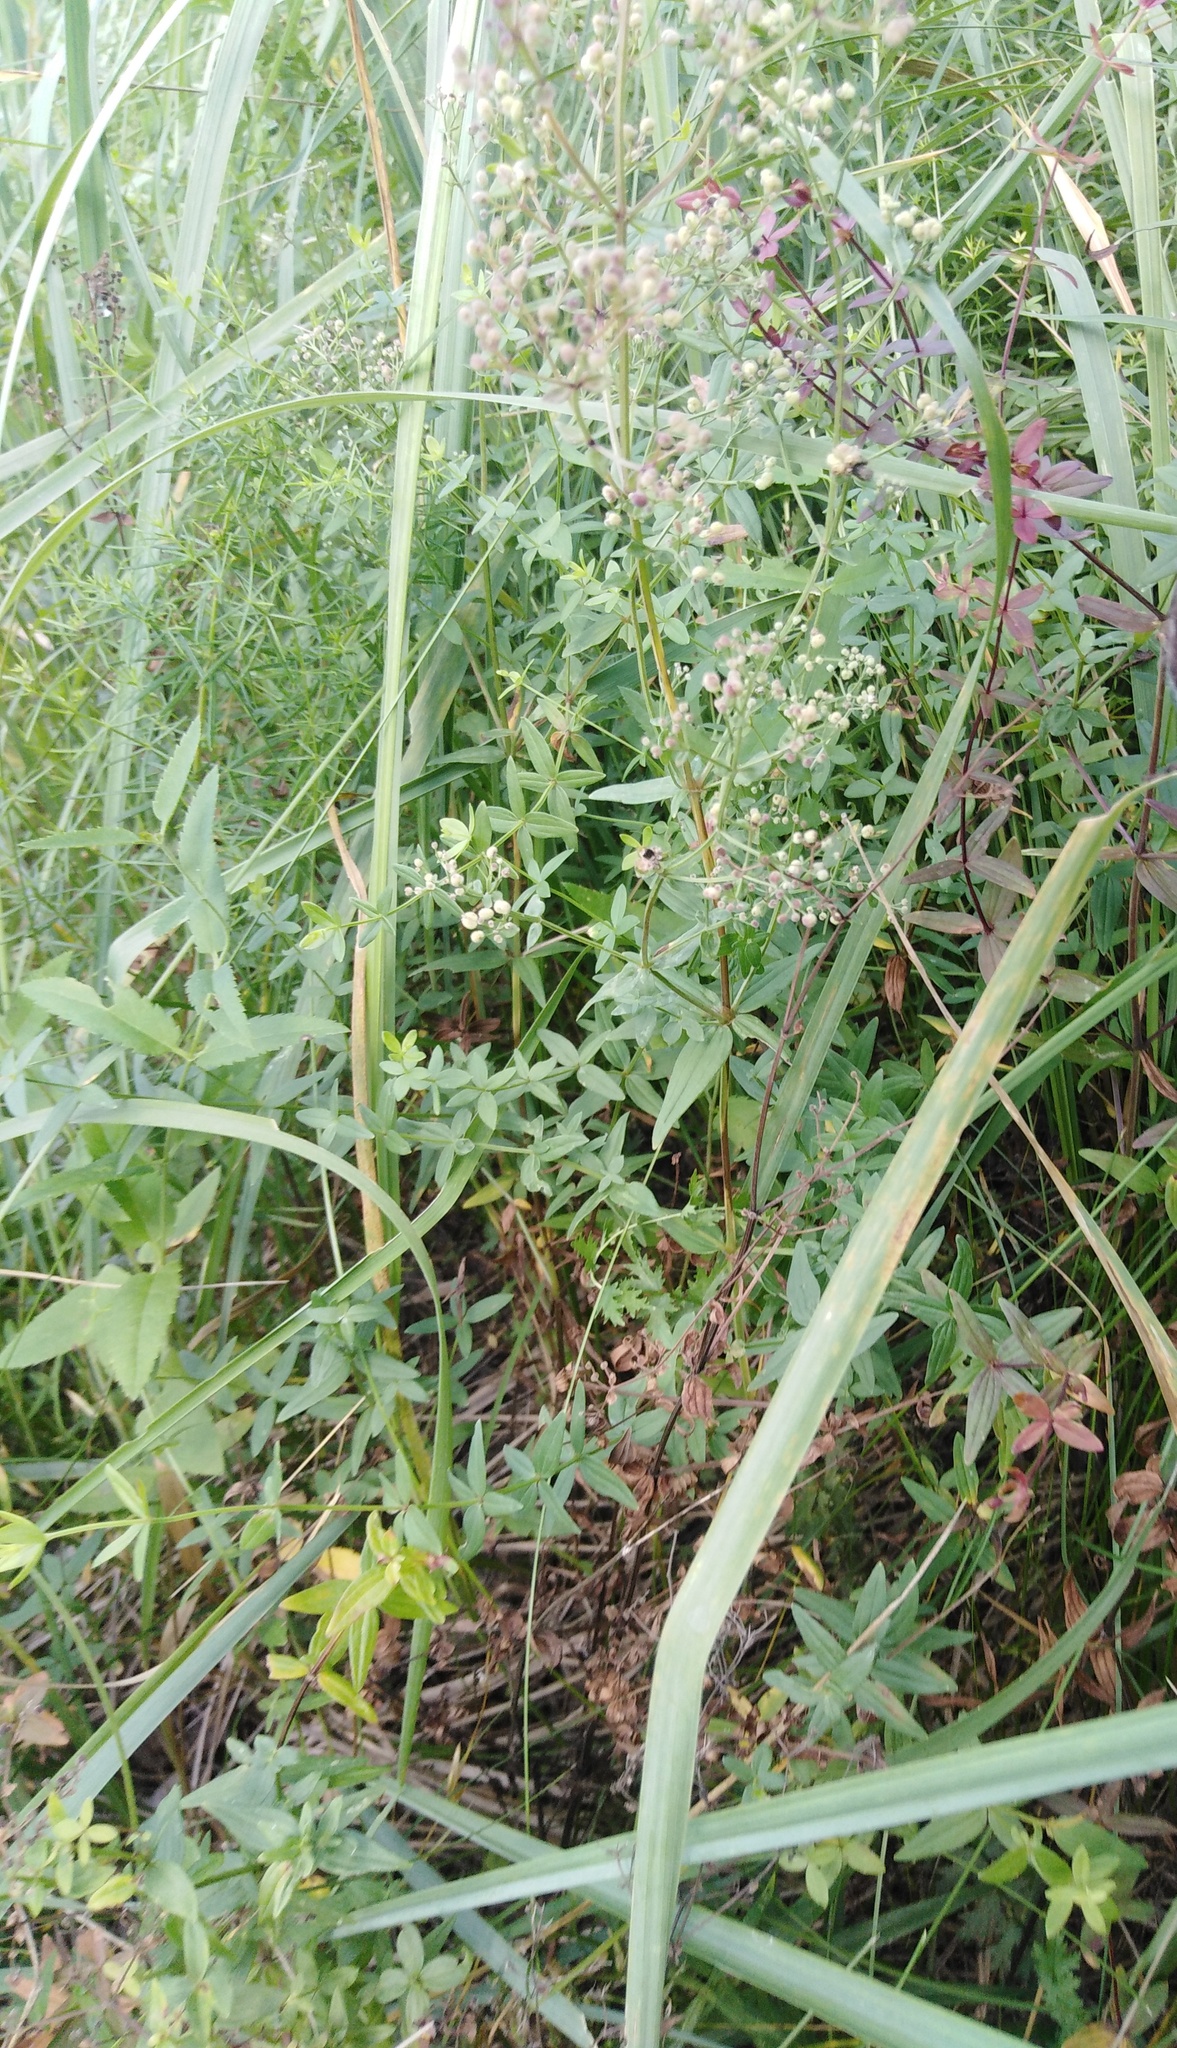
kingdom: Plantae
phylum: Tracheophyta
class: Magnoliopsida
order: Gentianales
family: Rubiaceae
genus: Galium
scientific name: Galium rubioides
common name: European bedstraw
